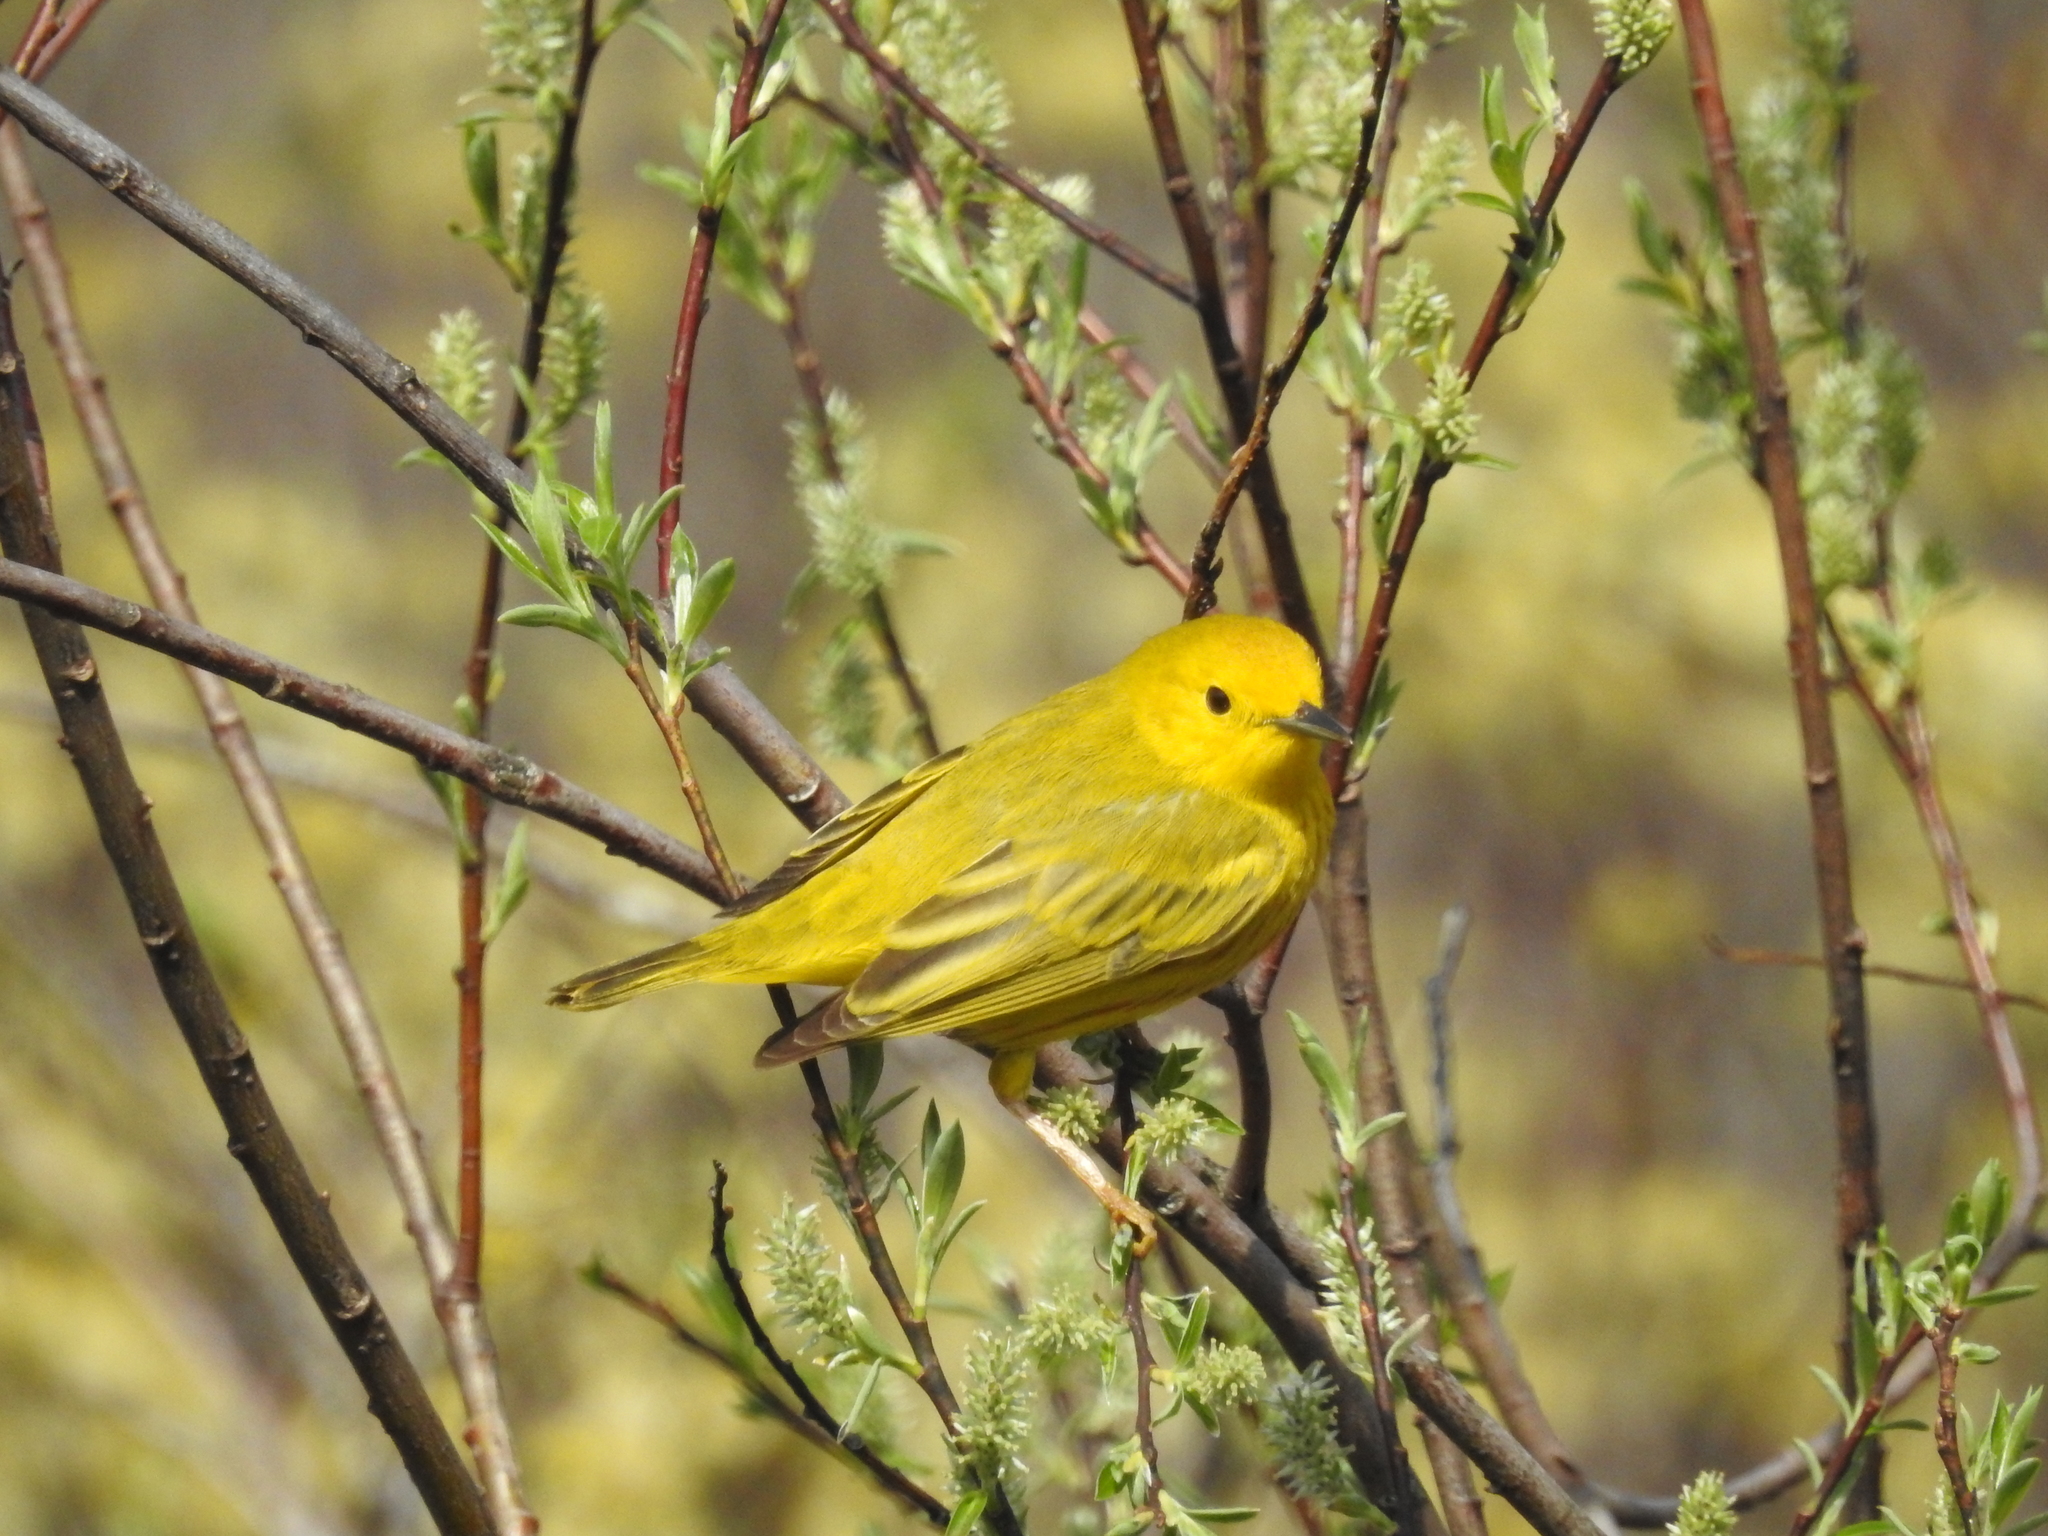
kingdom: Animalia
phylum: Chordata
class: Aves
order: Passeriformes
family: Parulidae
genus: Setophaga
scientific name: Setophaga petechia
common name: Yellow warbler
